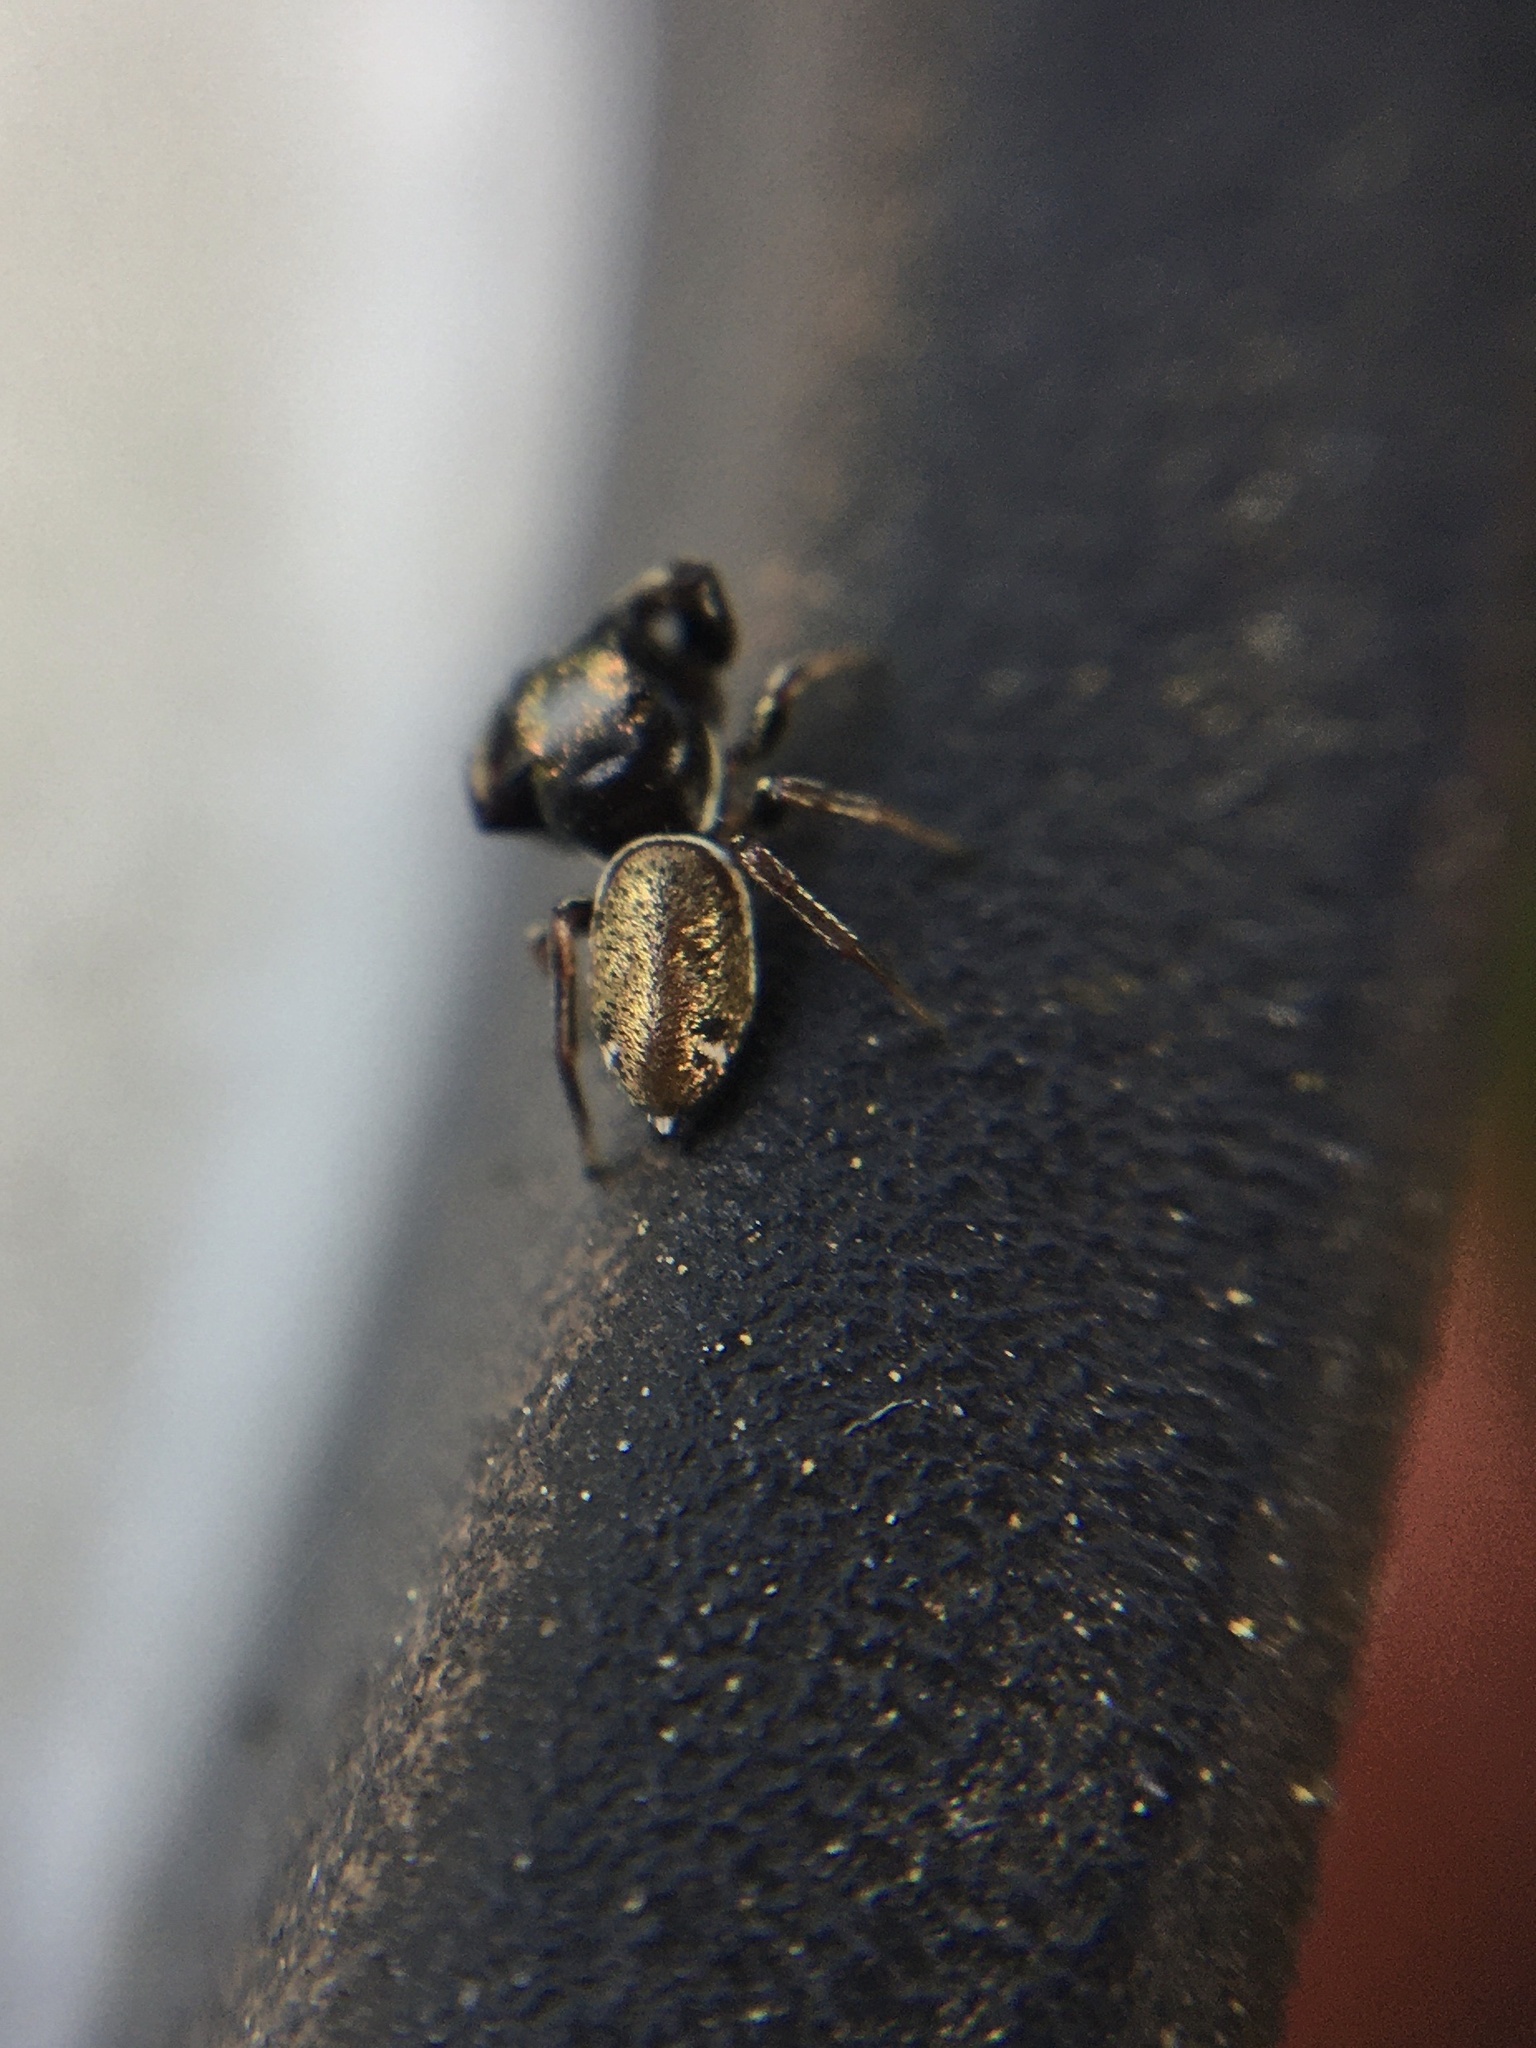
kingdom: Animalia
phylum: Arthropoda
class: Arachnida
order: Araneae
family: Salticidae
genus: Sassacus
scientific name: Sassacus vitis
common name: Jumping spiders
